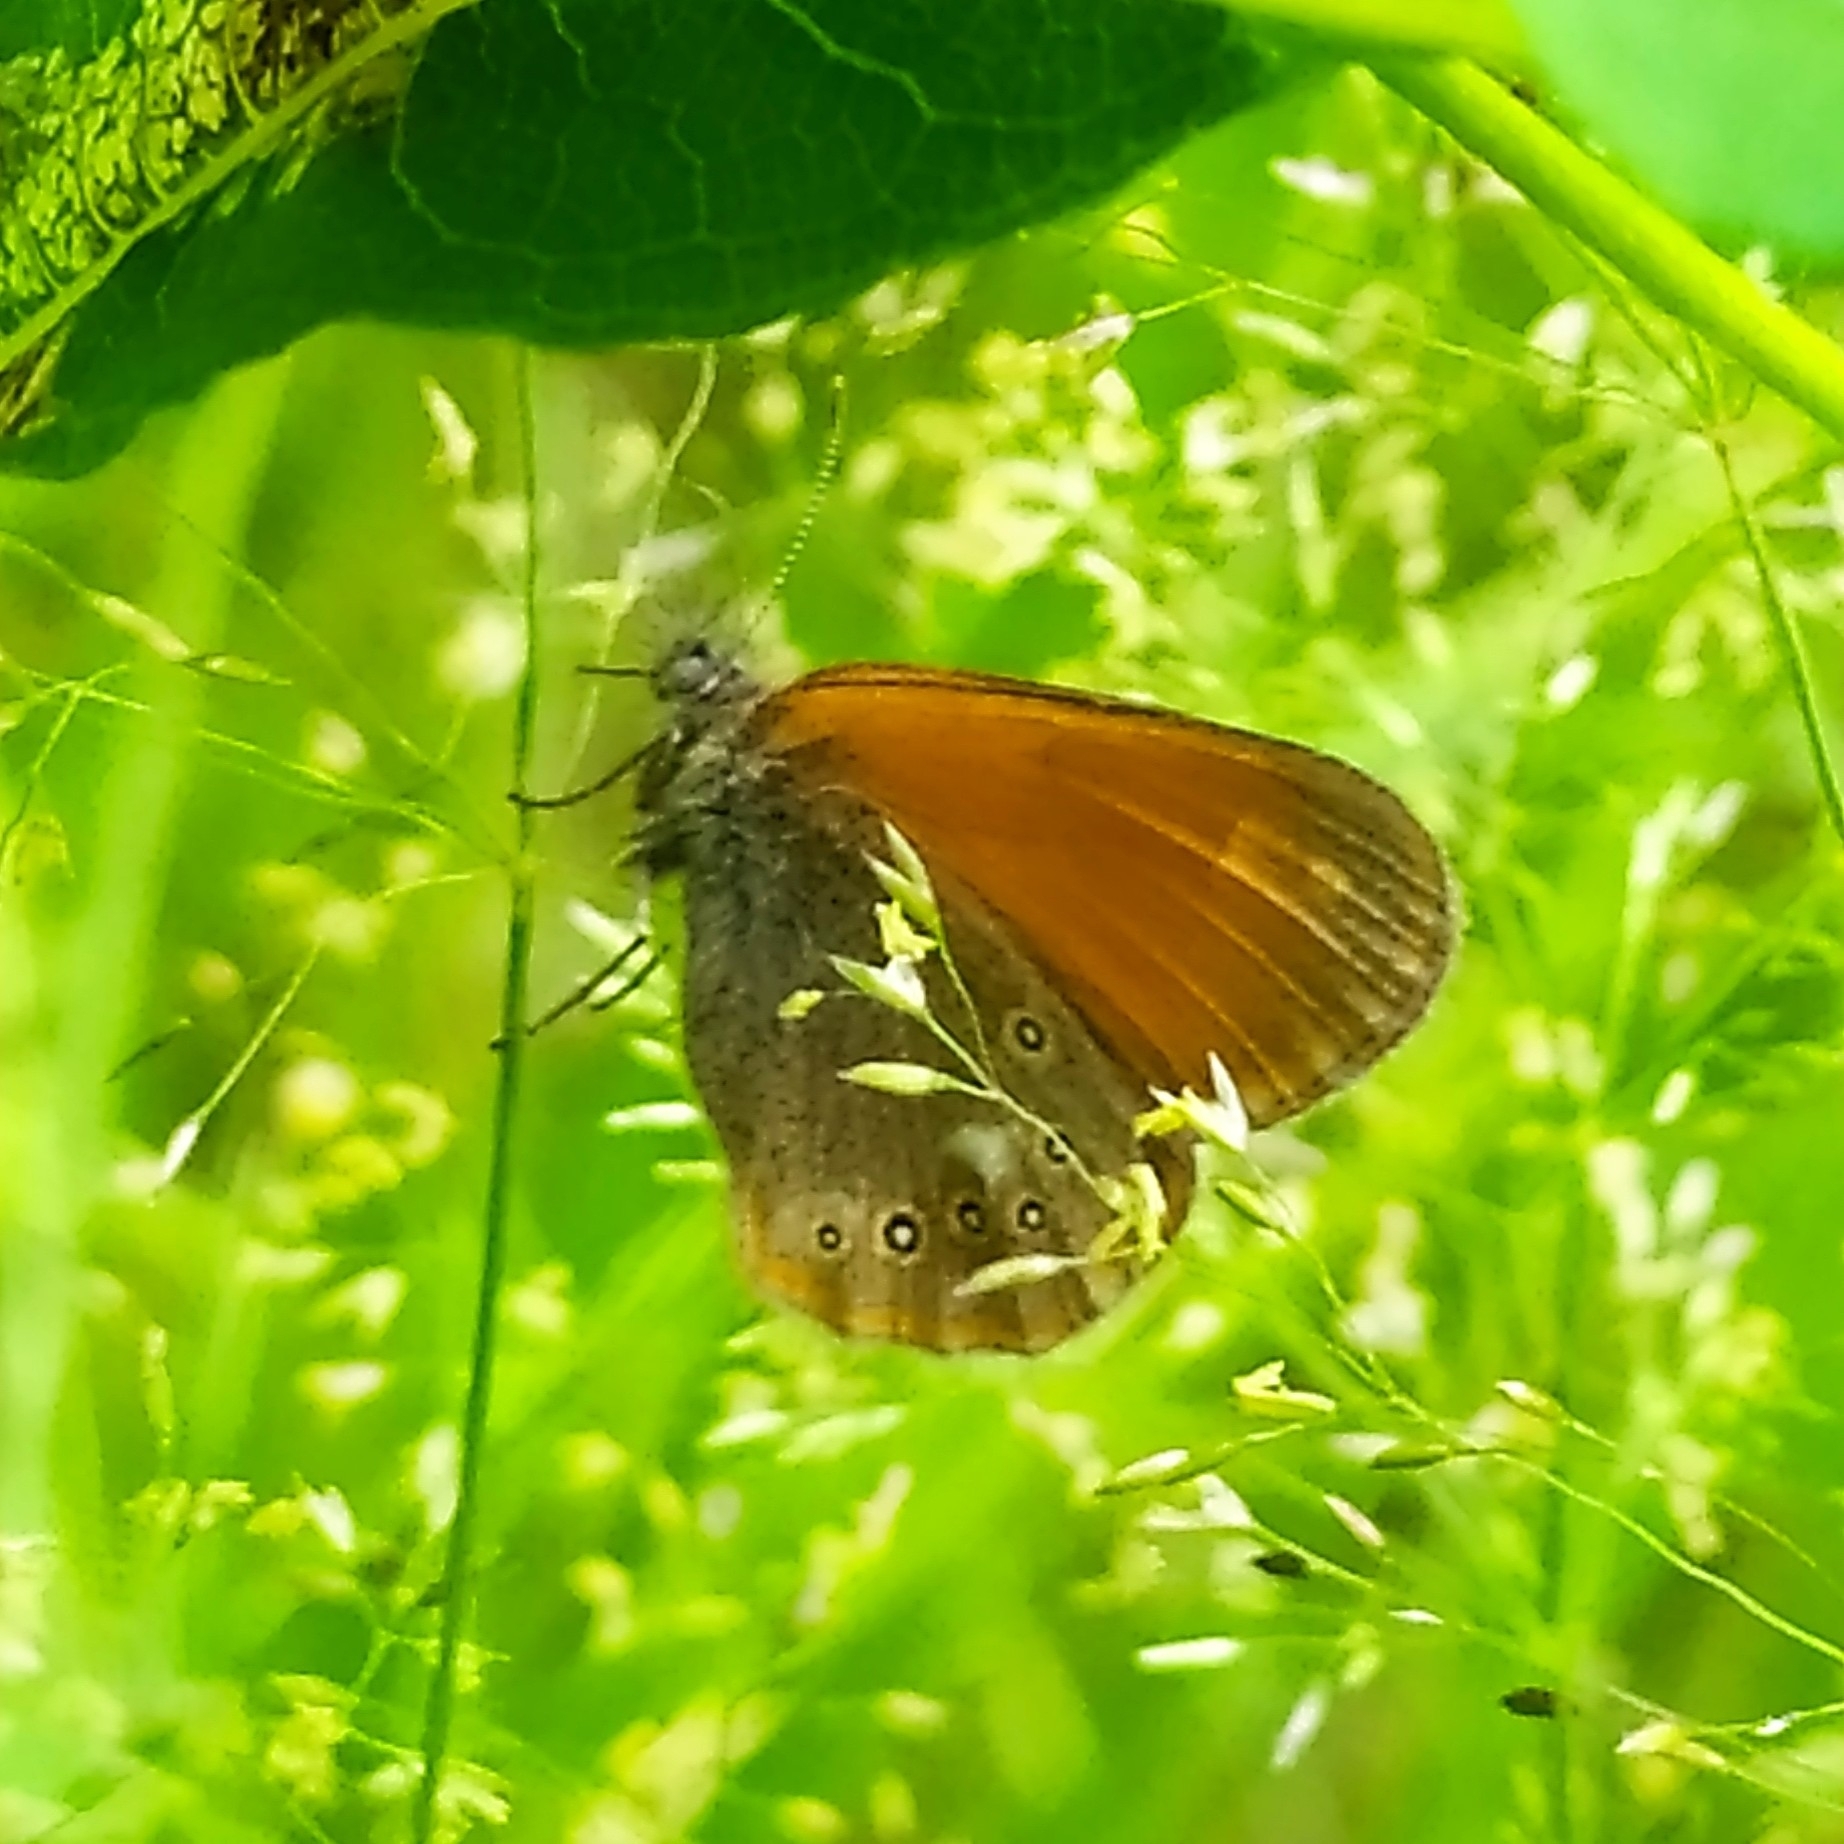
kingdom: Animalia
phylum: Arthropoda
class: Insecta
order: Lepidoptera
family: Nymphalidae
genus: Coenonympha
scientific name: Coenonympha iphis
